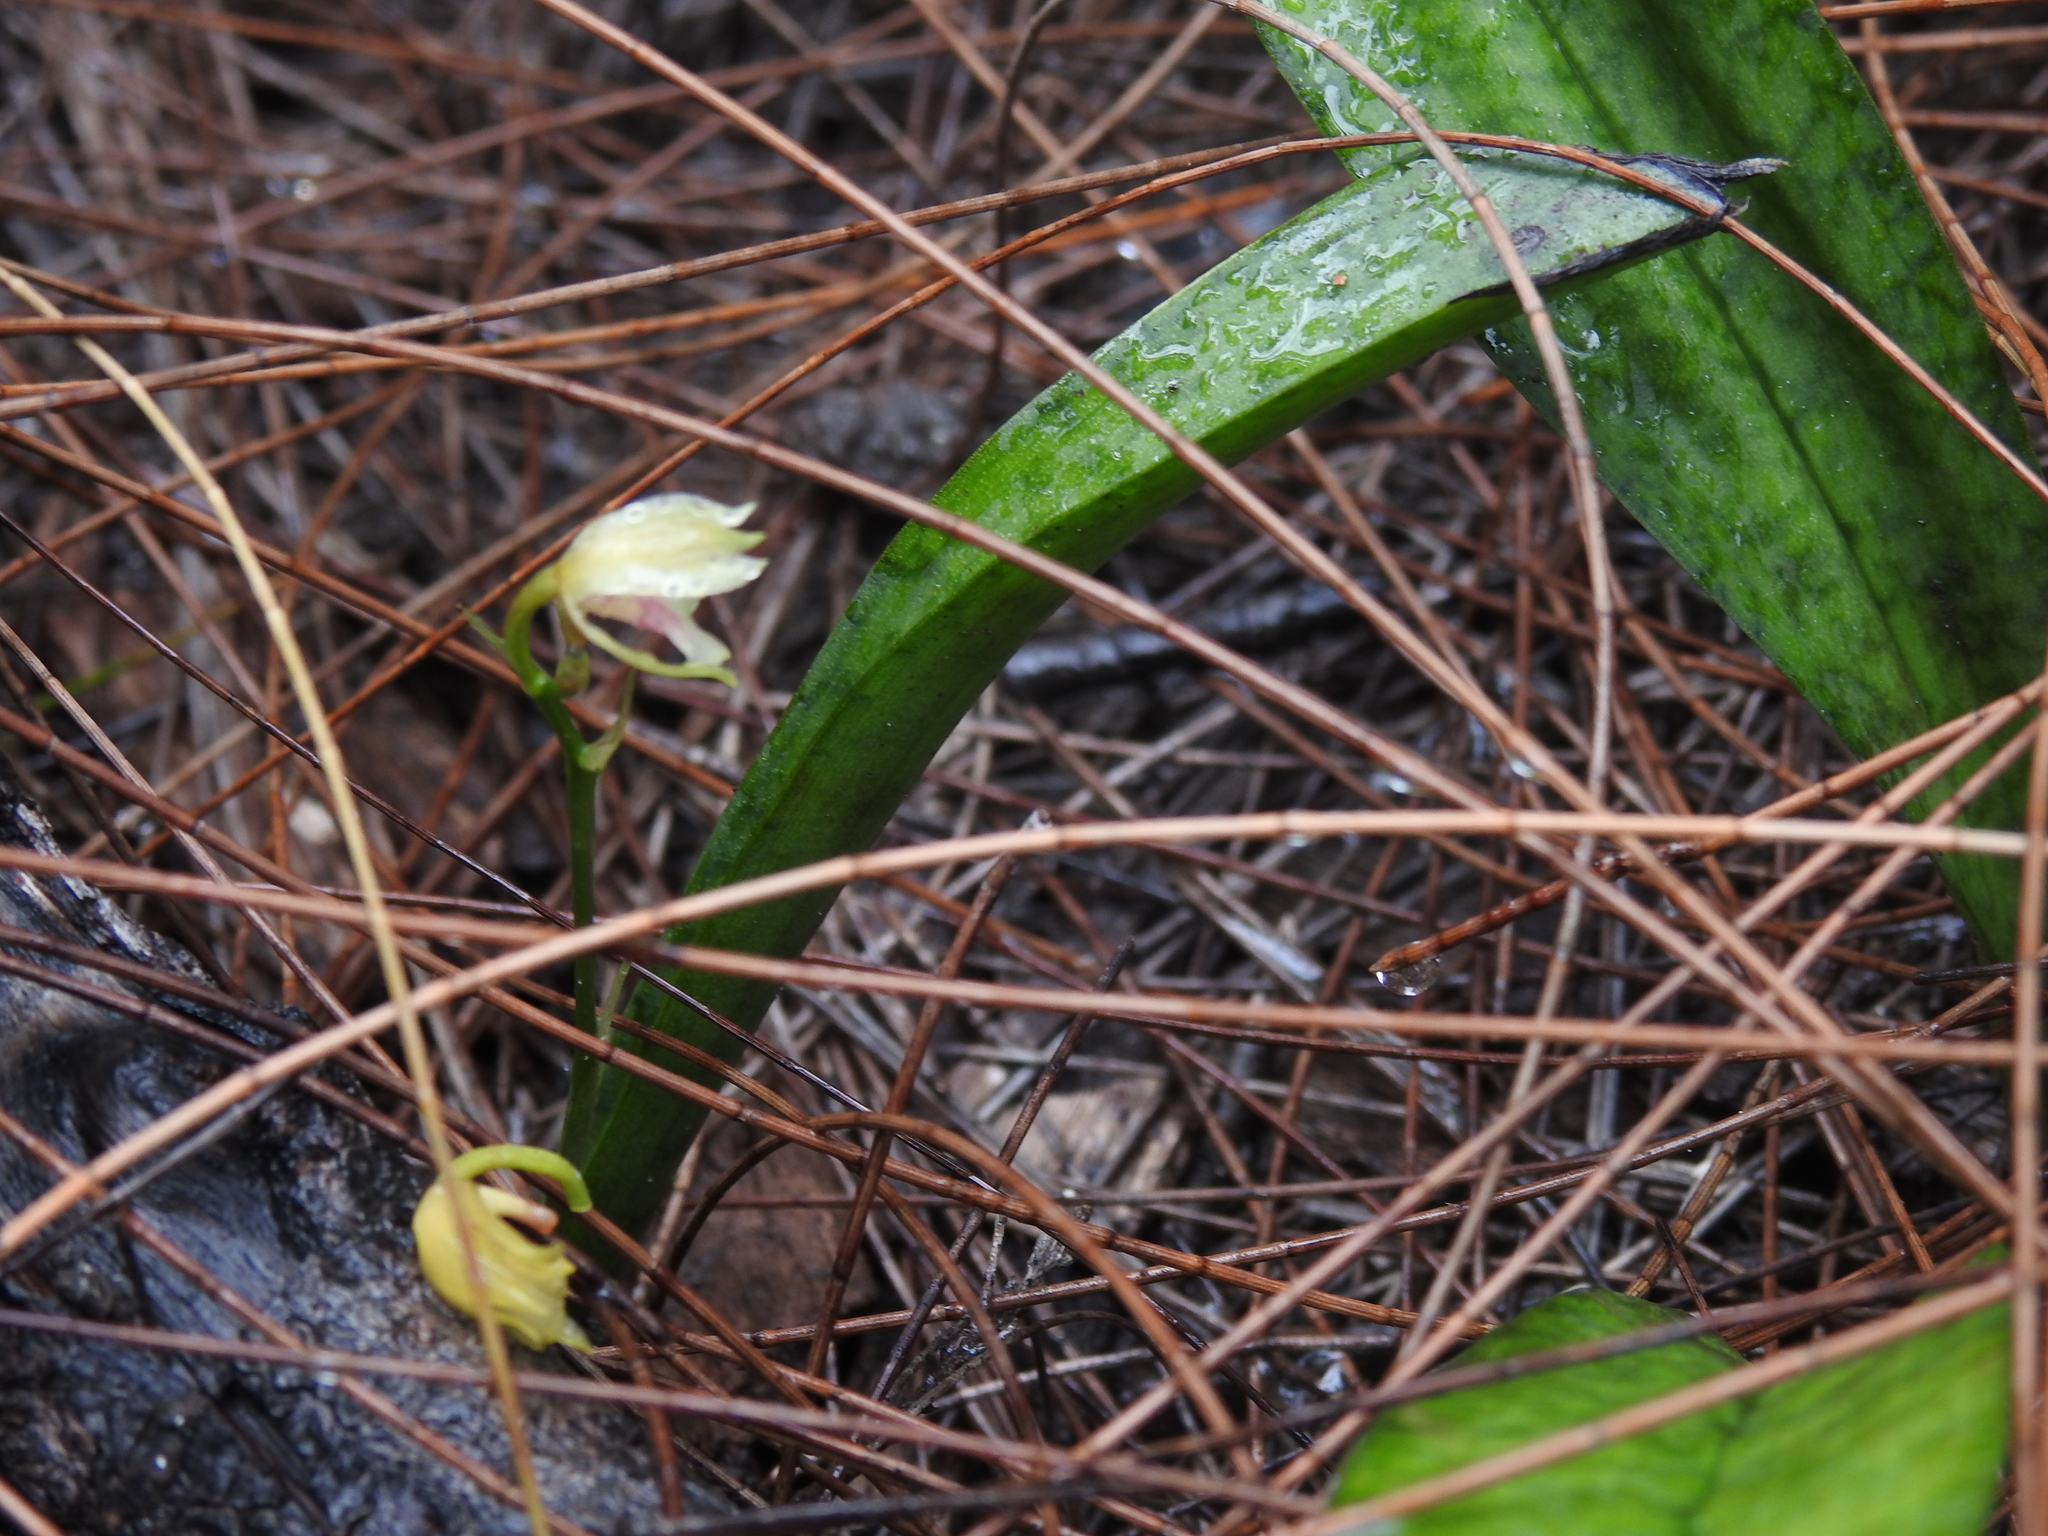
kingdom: Plantae
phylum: Tracheophyta
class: Liliopsida
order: Asparagales
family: Orchidaceae
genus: Eulophia
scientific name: Eulophia maculata
